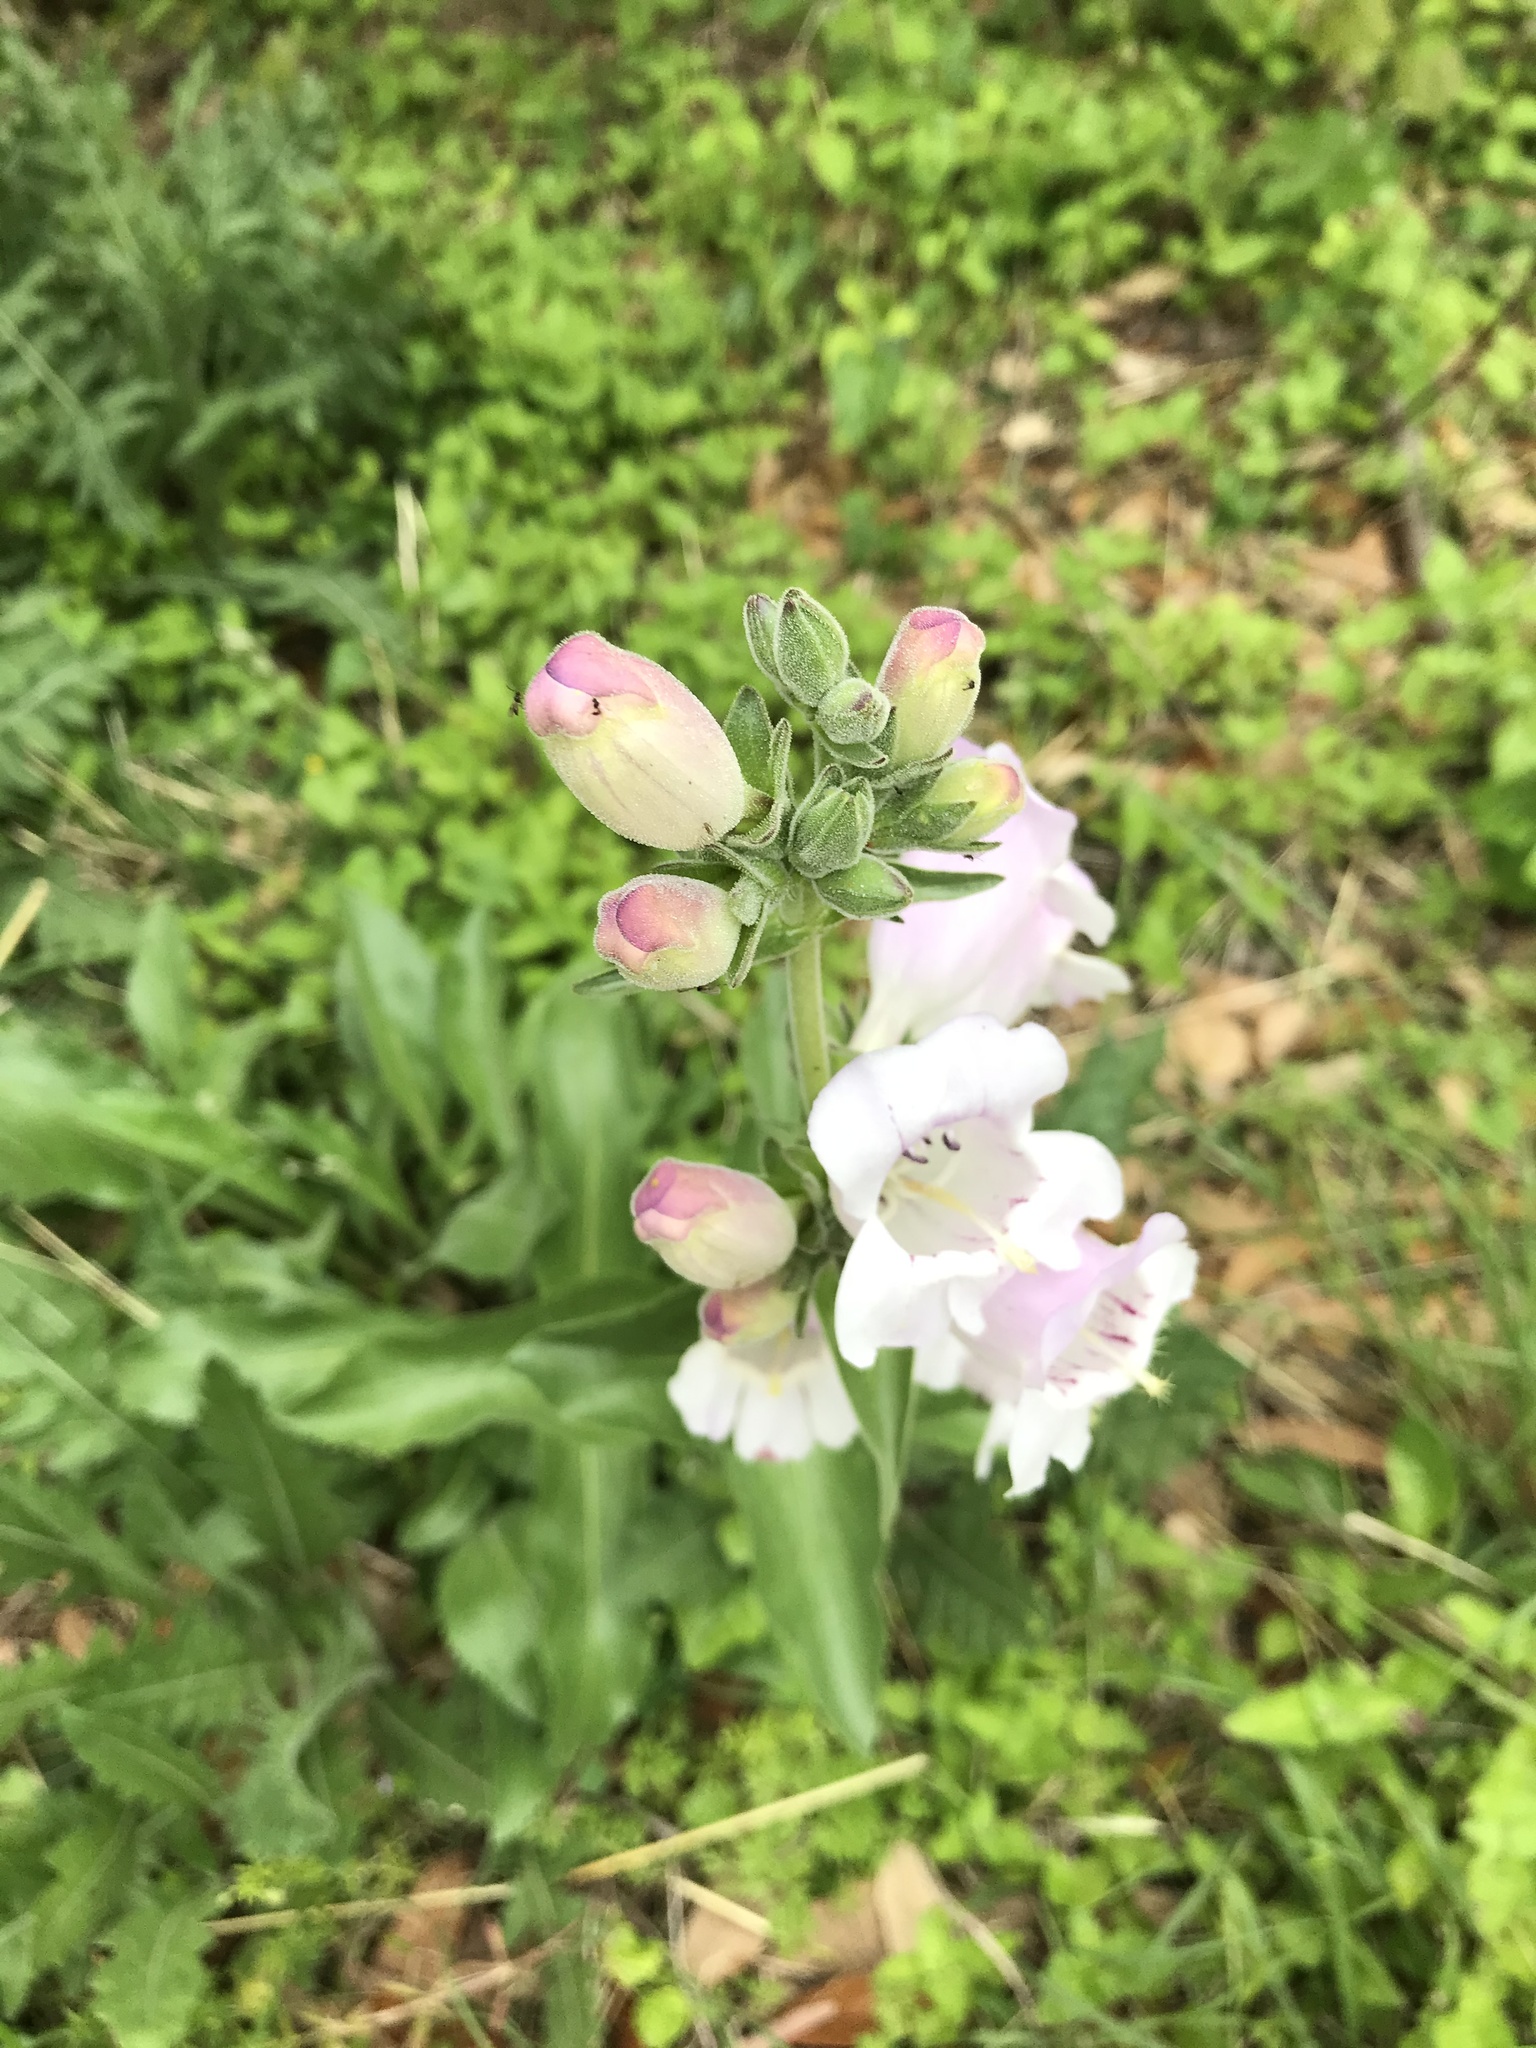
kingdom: Plantae
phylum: Tracheophyta
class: Magnoliopsida
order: Lamiales
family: Plantaginaceae
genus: Penstemon
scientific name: Penstemon cobaea
